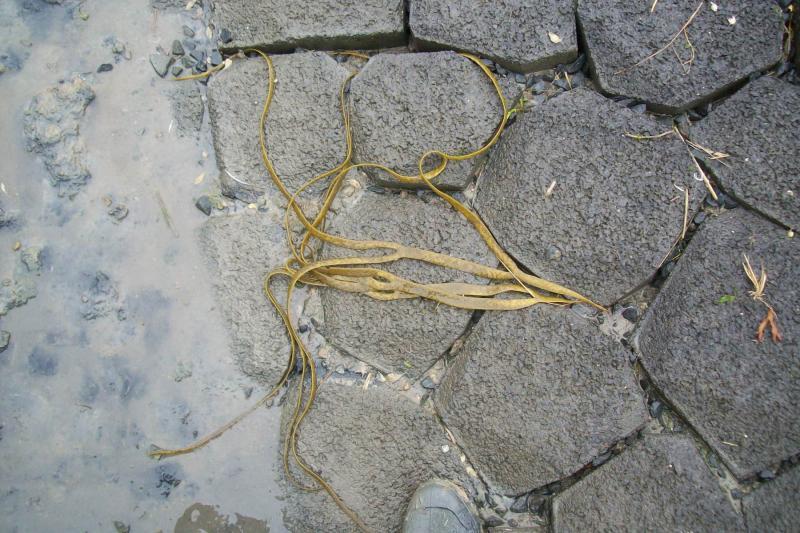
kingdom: Chromista
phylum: Ochrophyta
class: Phaeophyceae
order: Fucales
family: Himanthaliaceae
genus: Himanthalia
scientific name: Himanthalia elongata
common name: Sea-thong
